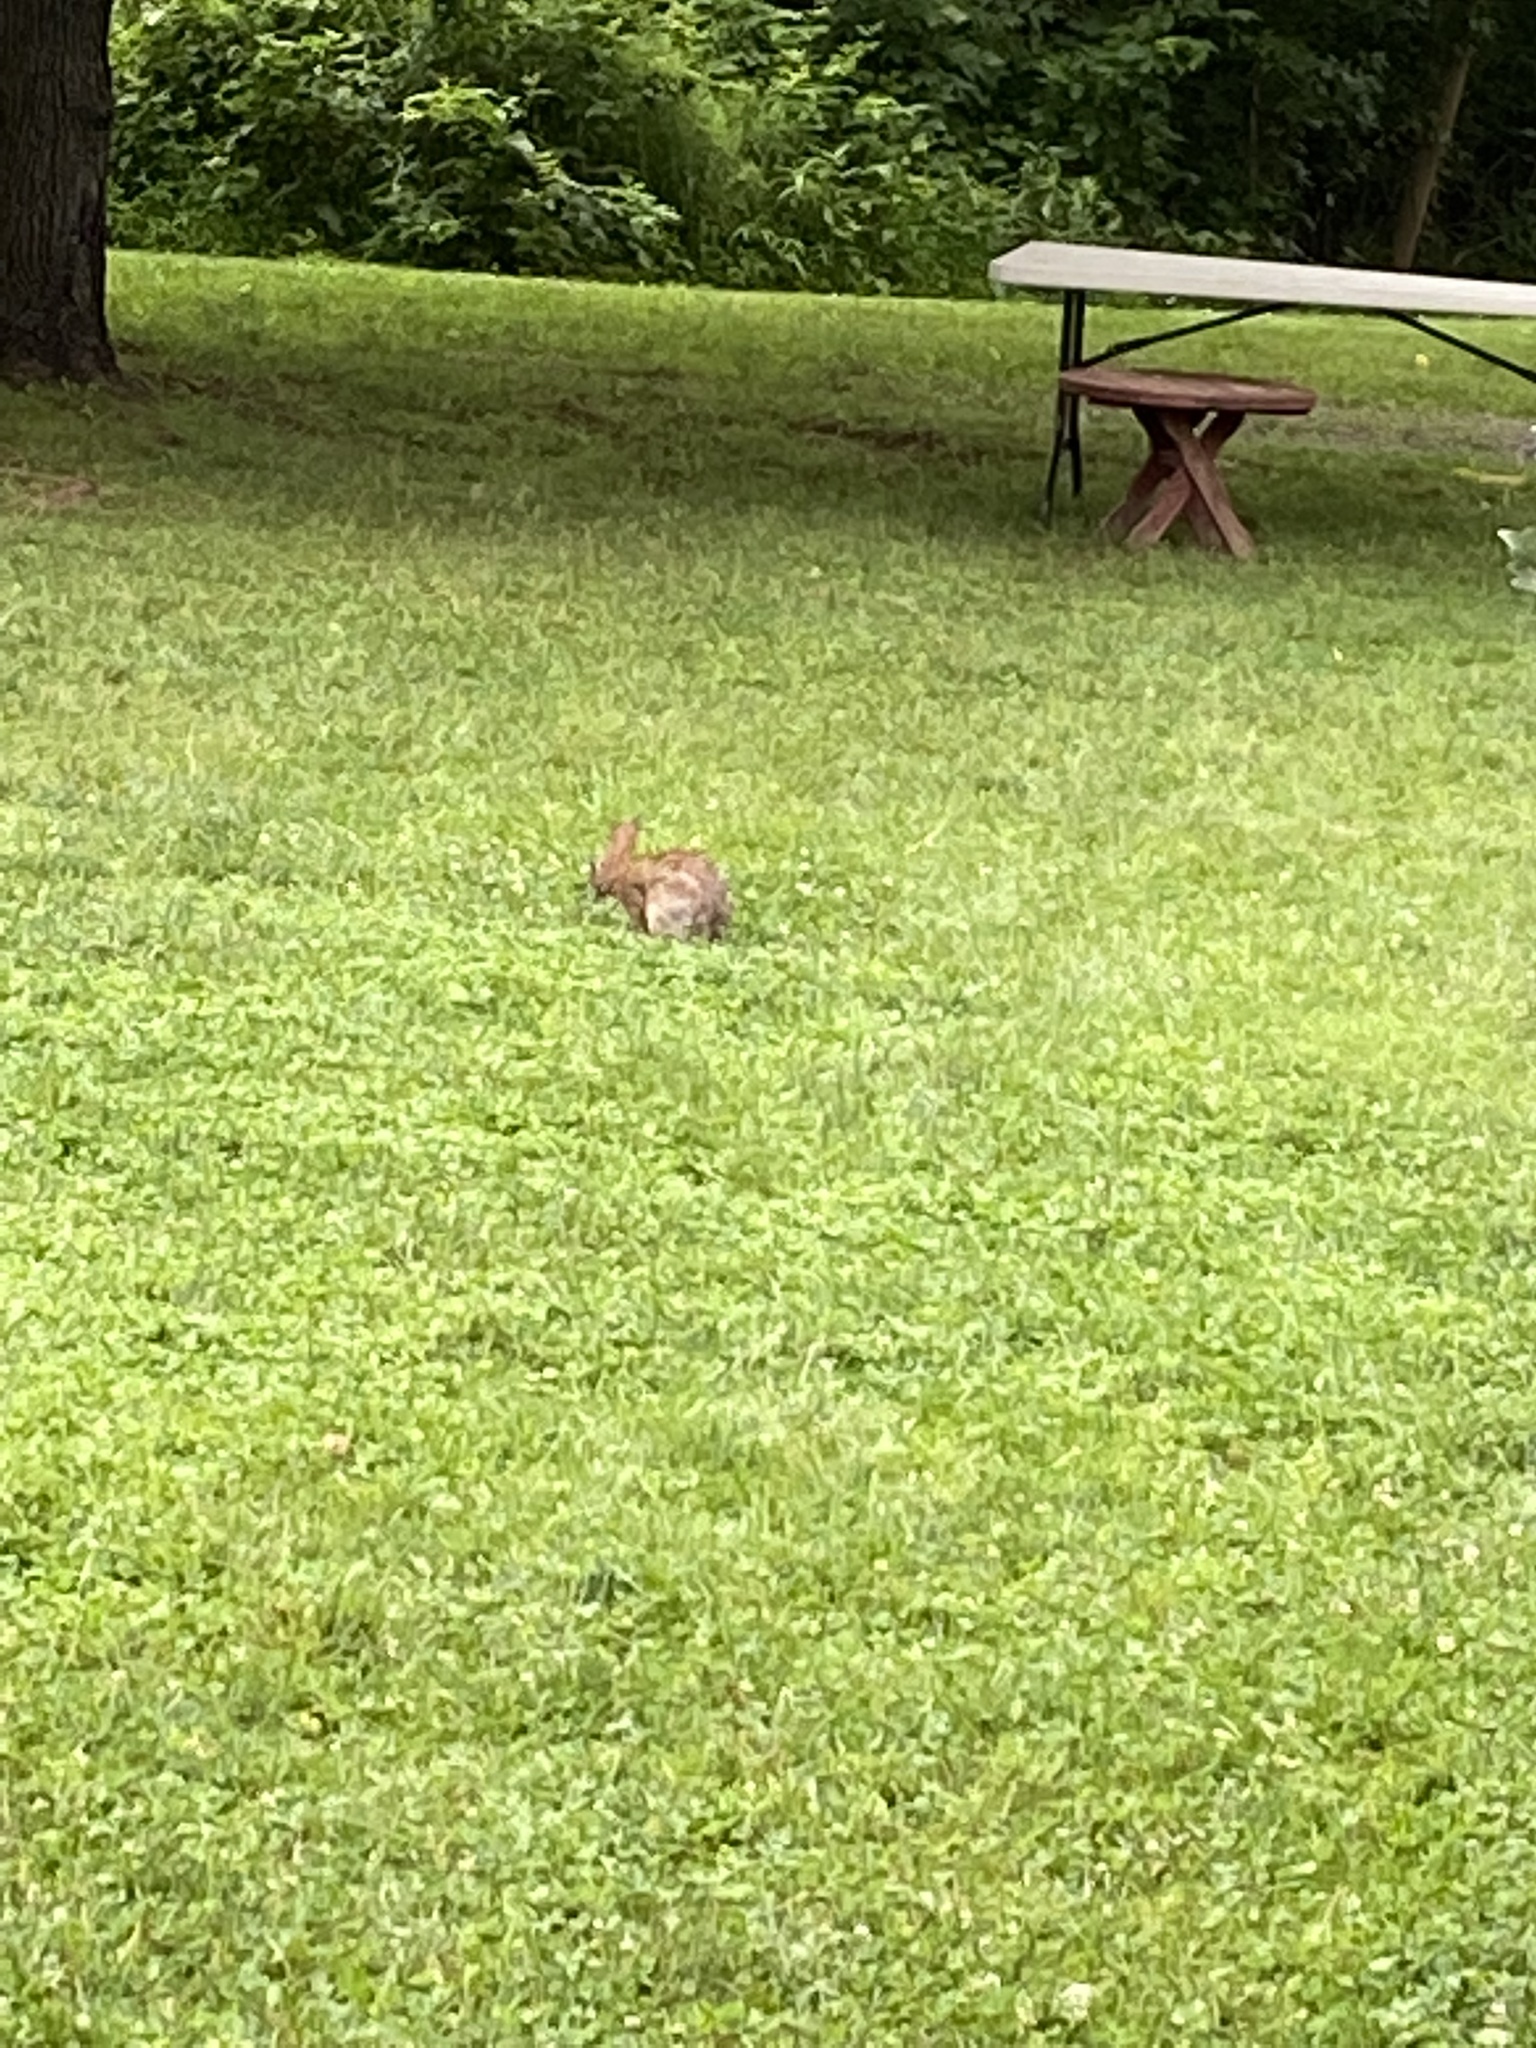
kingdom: Animalia
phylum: Chordata
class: Mammalia
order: Lagomorpha
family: Leporidae
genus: Sylvilagus
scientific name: Sylvilagus floridanus
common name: Eastern cottontail
